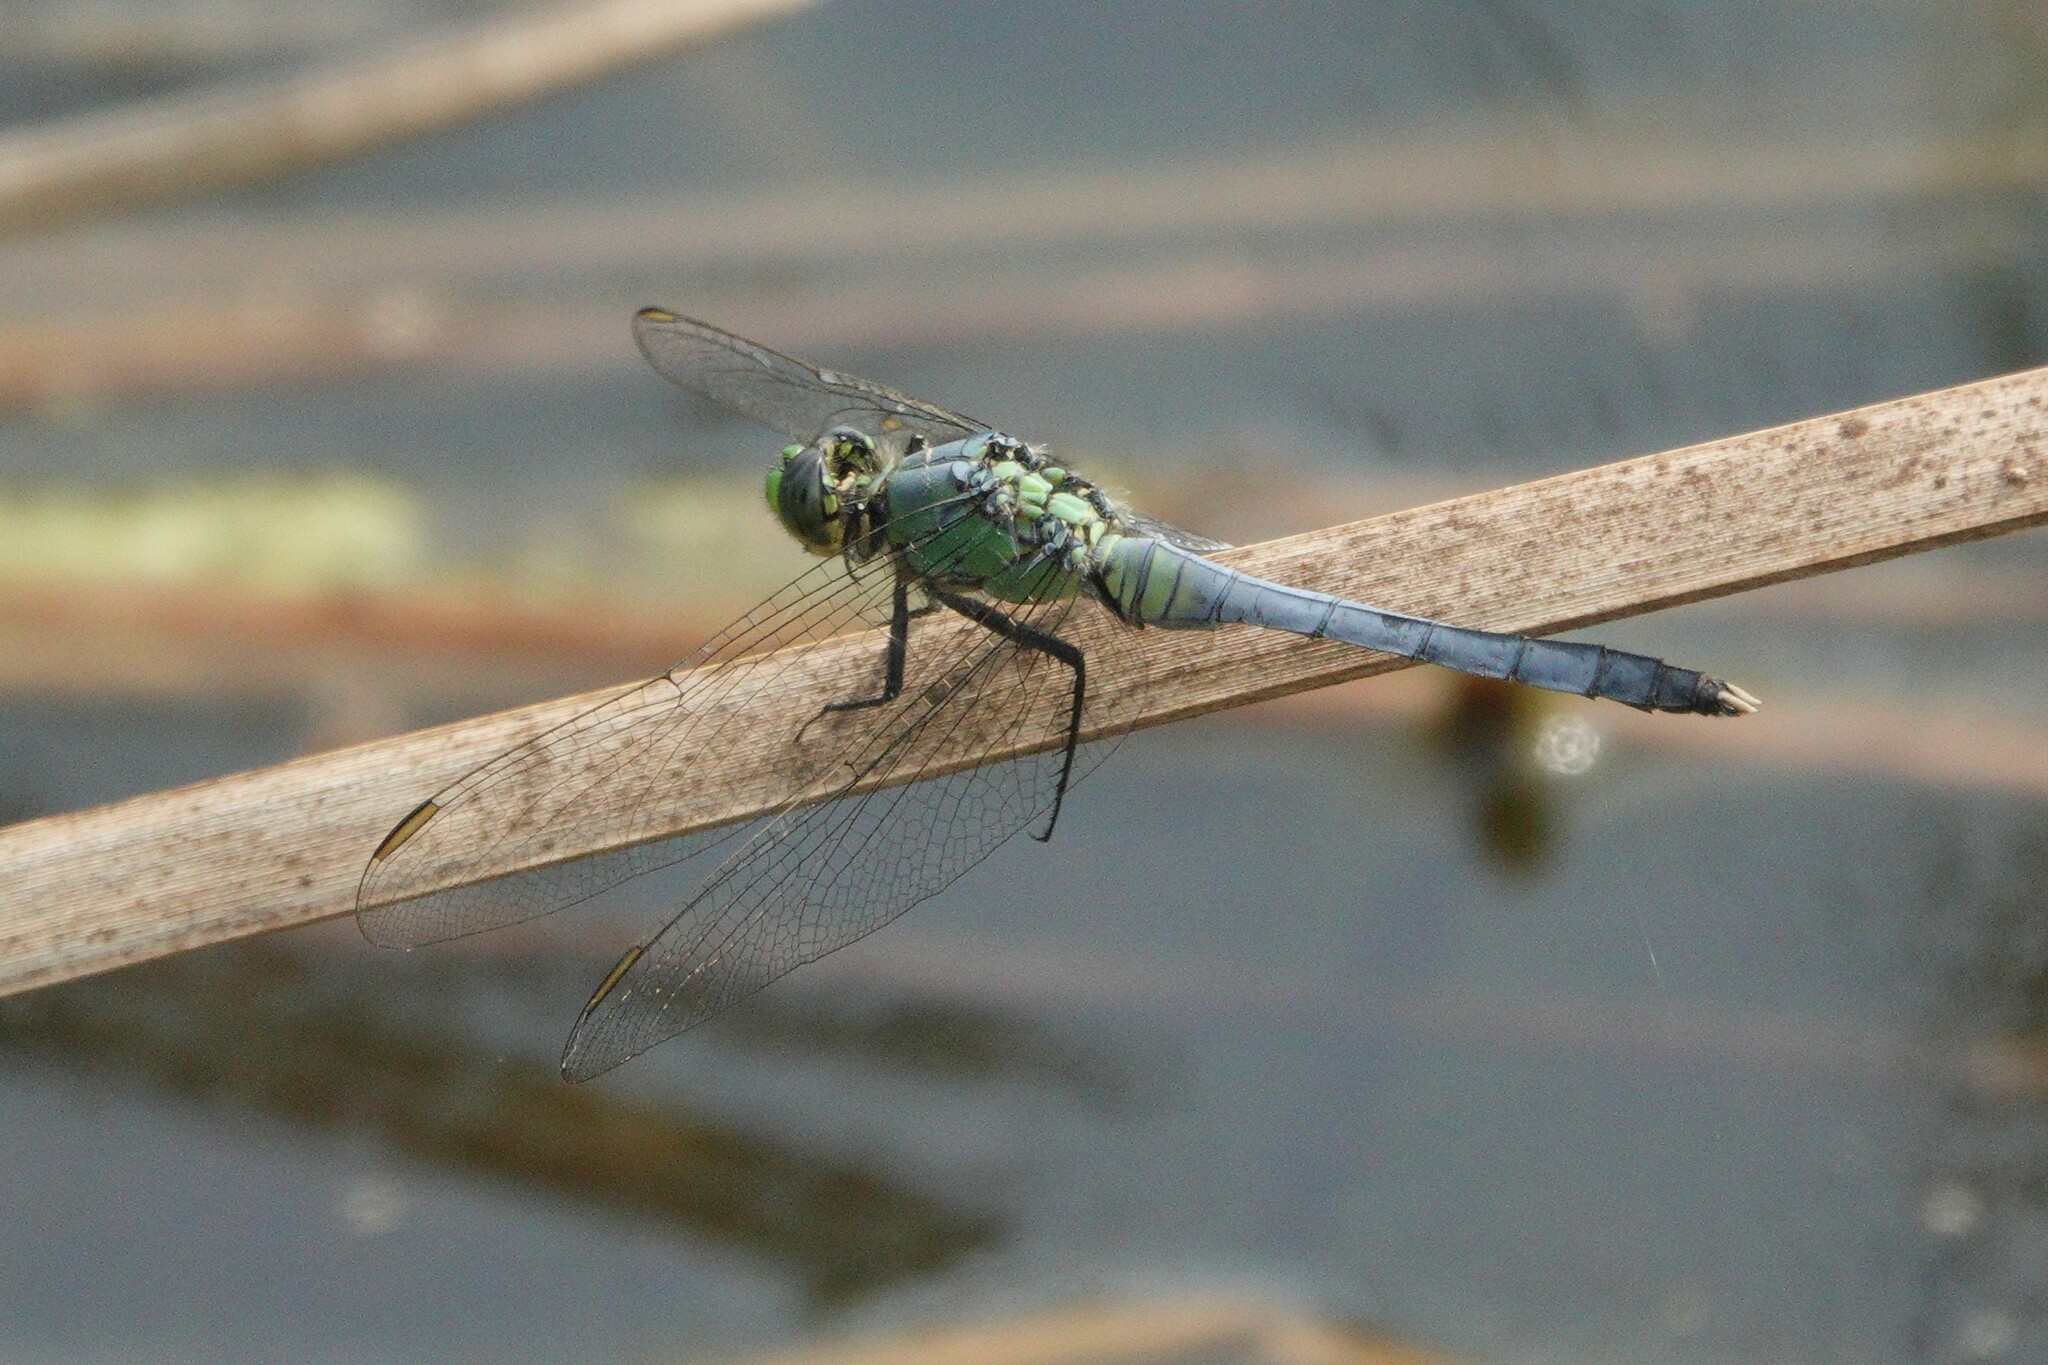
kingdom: Animalia
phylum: Arthropoda
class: Insecta
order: Odonata
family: Libellulidae
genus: Erythemis
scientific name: Erythemis simplicicollis
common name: Eastern pondhawk
